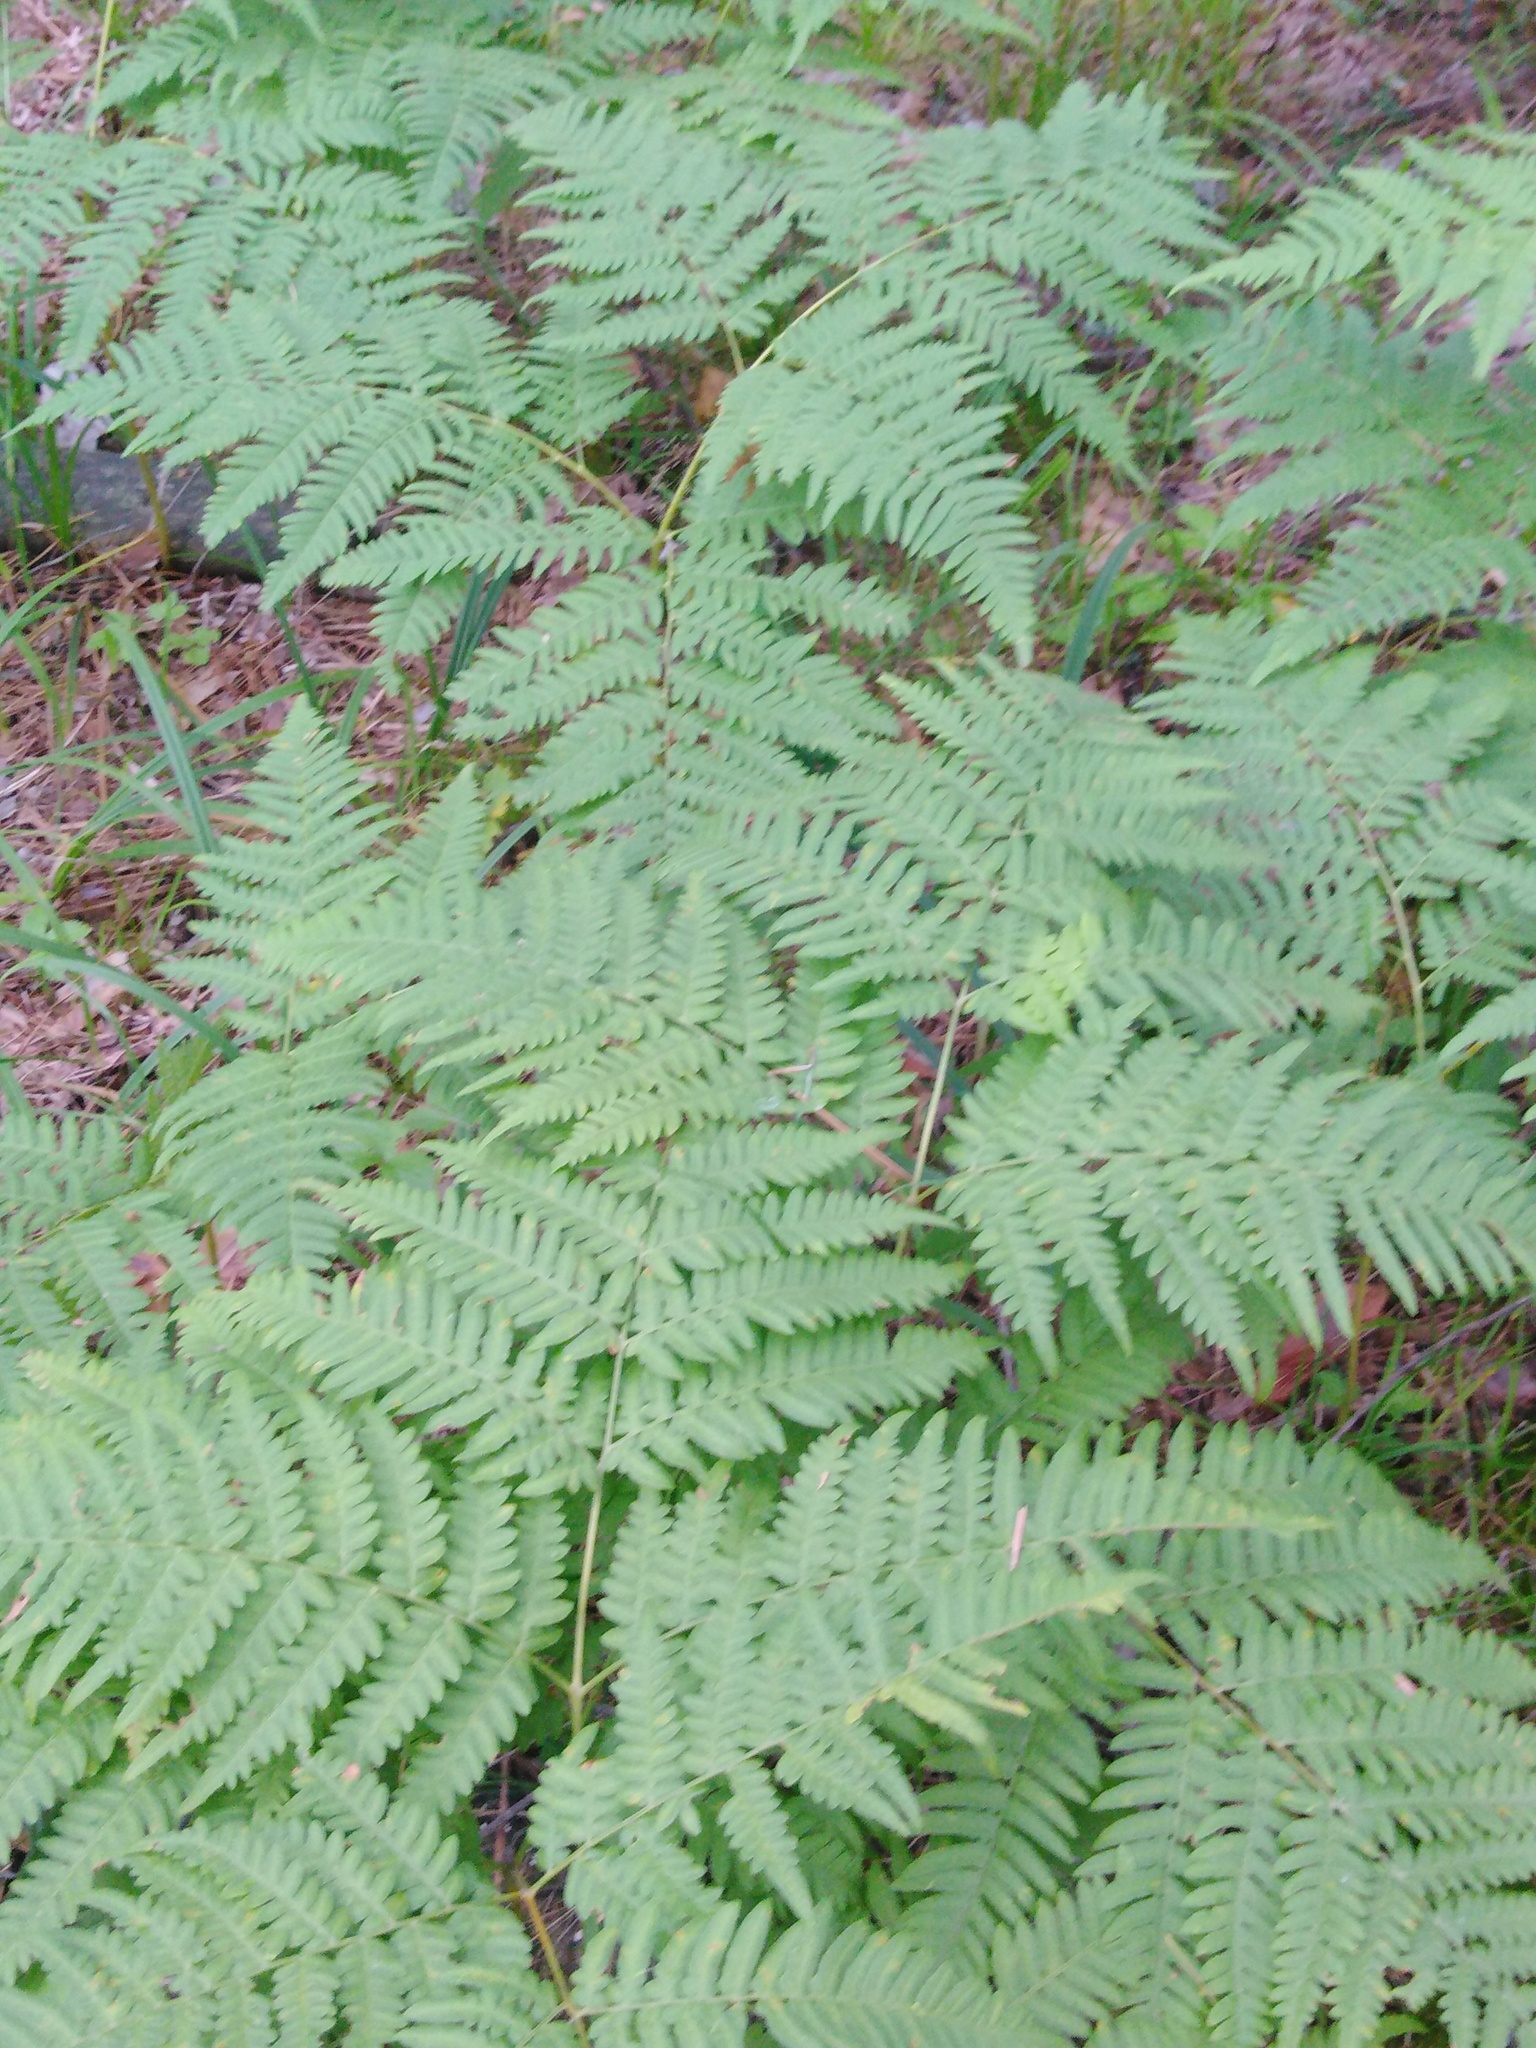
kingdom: Plantae
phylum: Tracheophyta
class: Polypodiopsida
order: Polypodiales
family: Dennstaedtiaceae
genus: Pteridium
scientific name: Pteridium aquilinum
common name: Bracken
